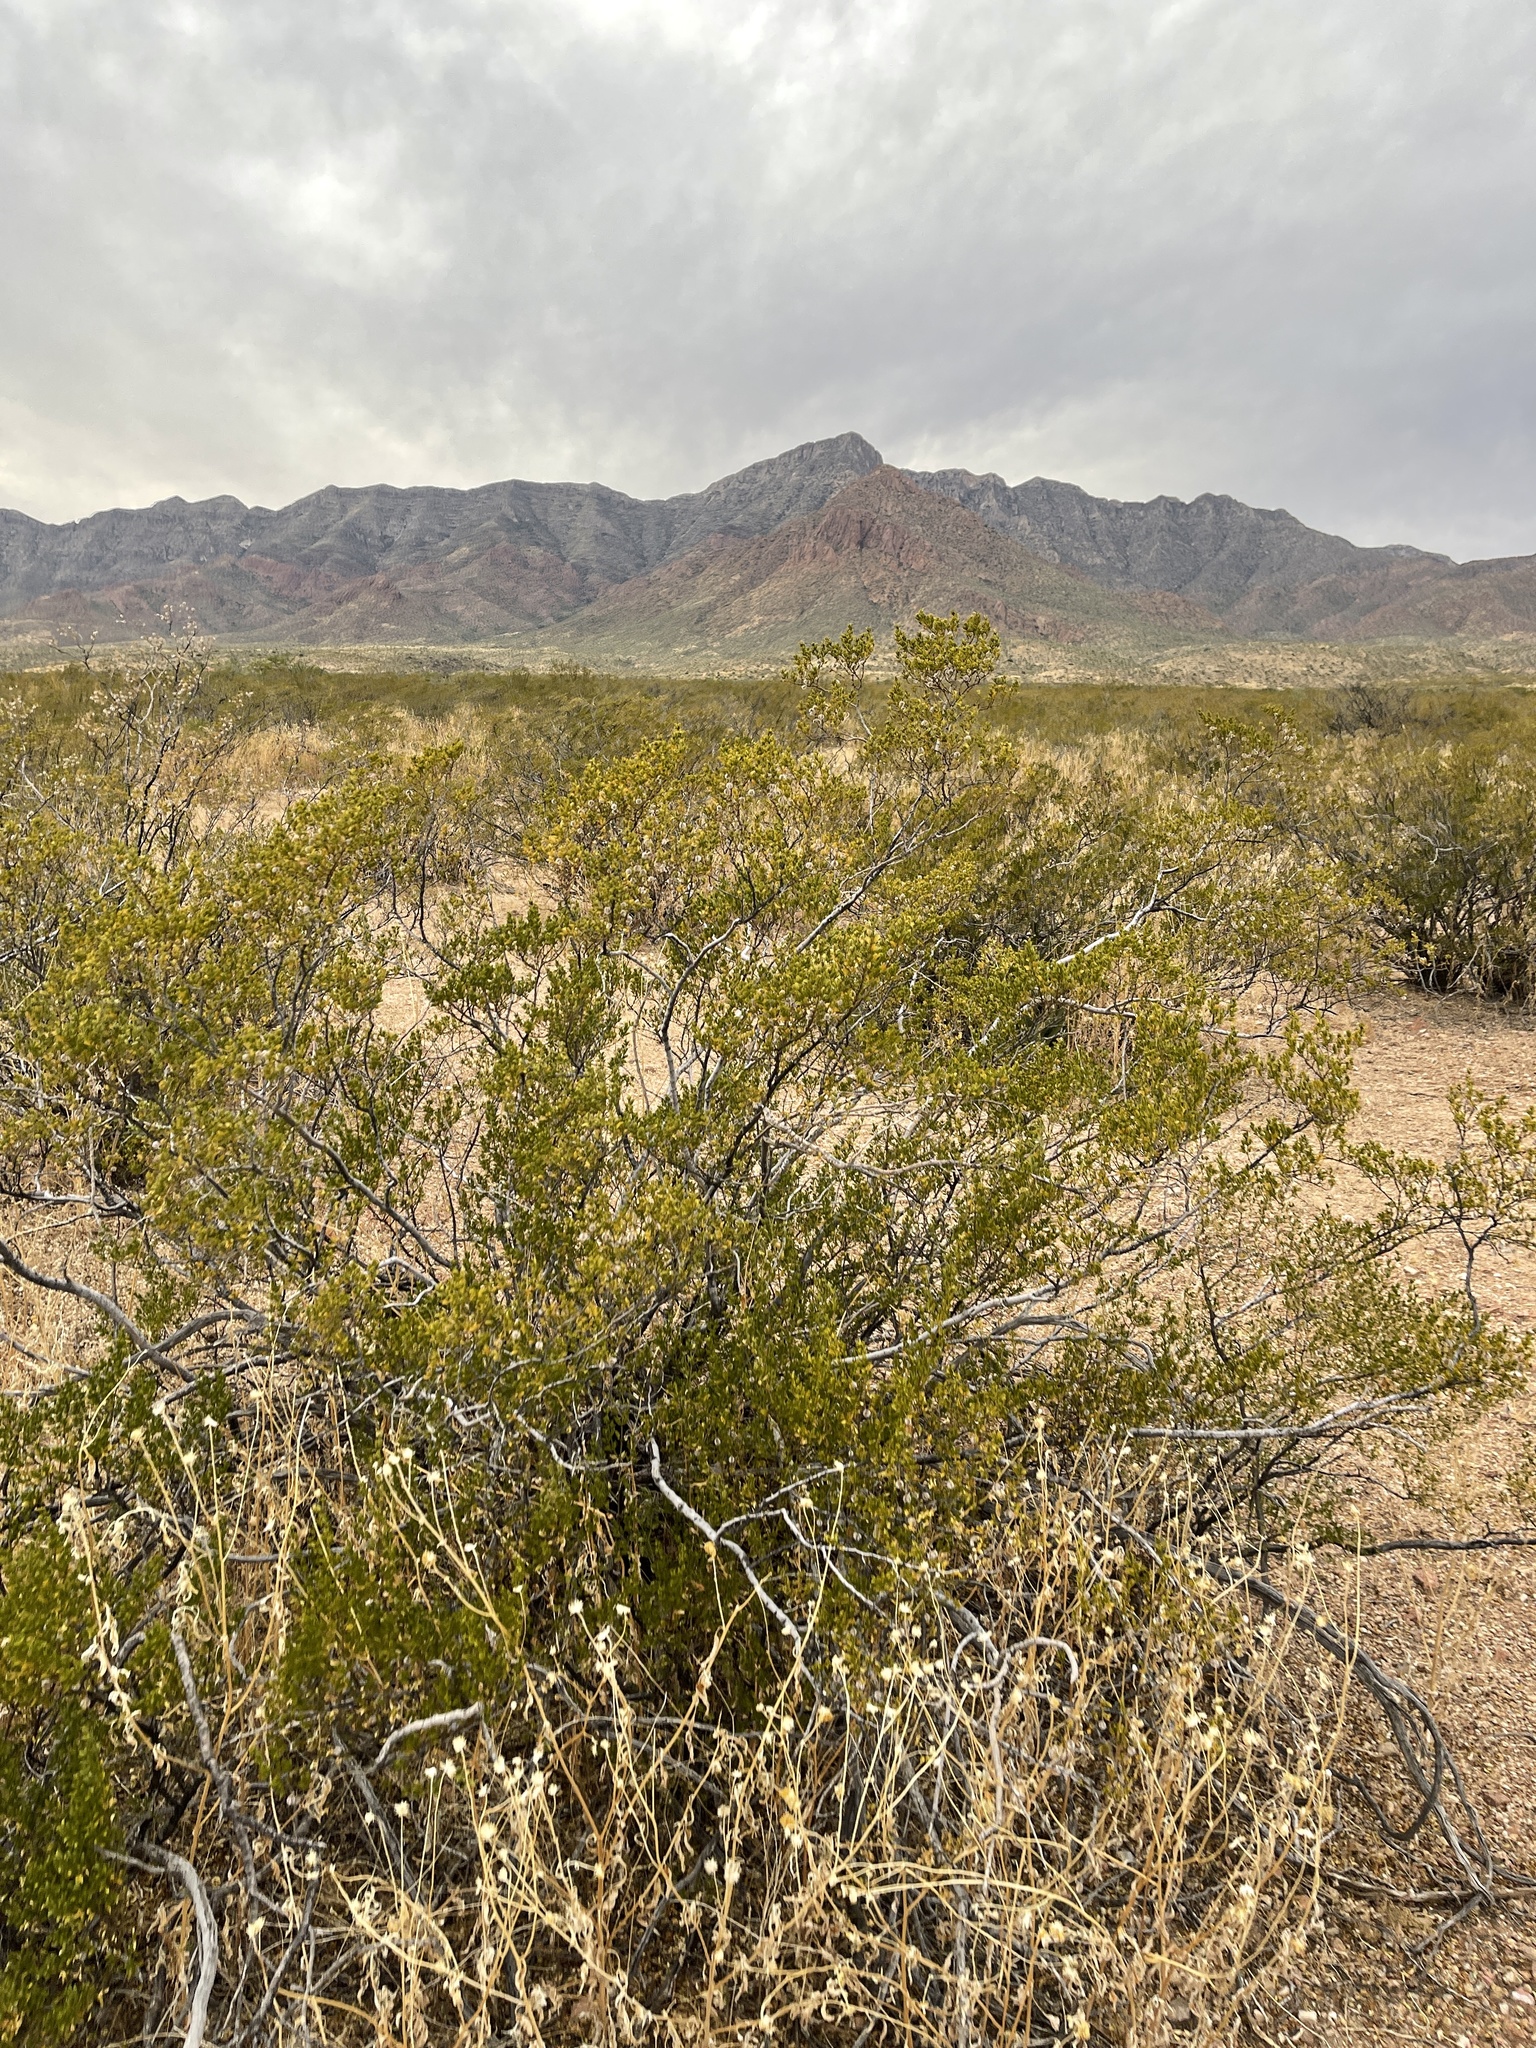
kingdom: Plantae
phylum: Tracheophyta
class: Magnoliopsida
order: Zygophyllales
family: Zygophyllaceae
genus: Larrea
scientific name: Larrea tridentata
